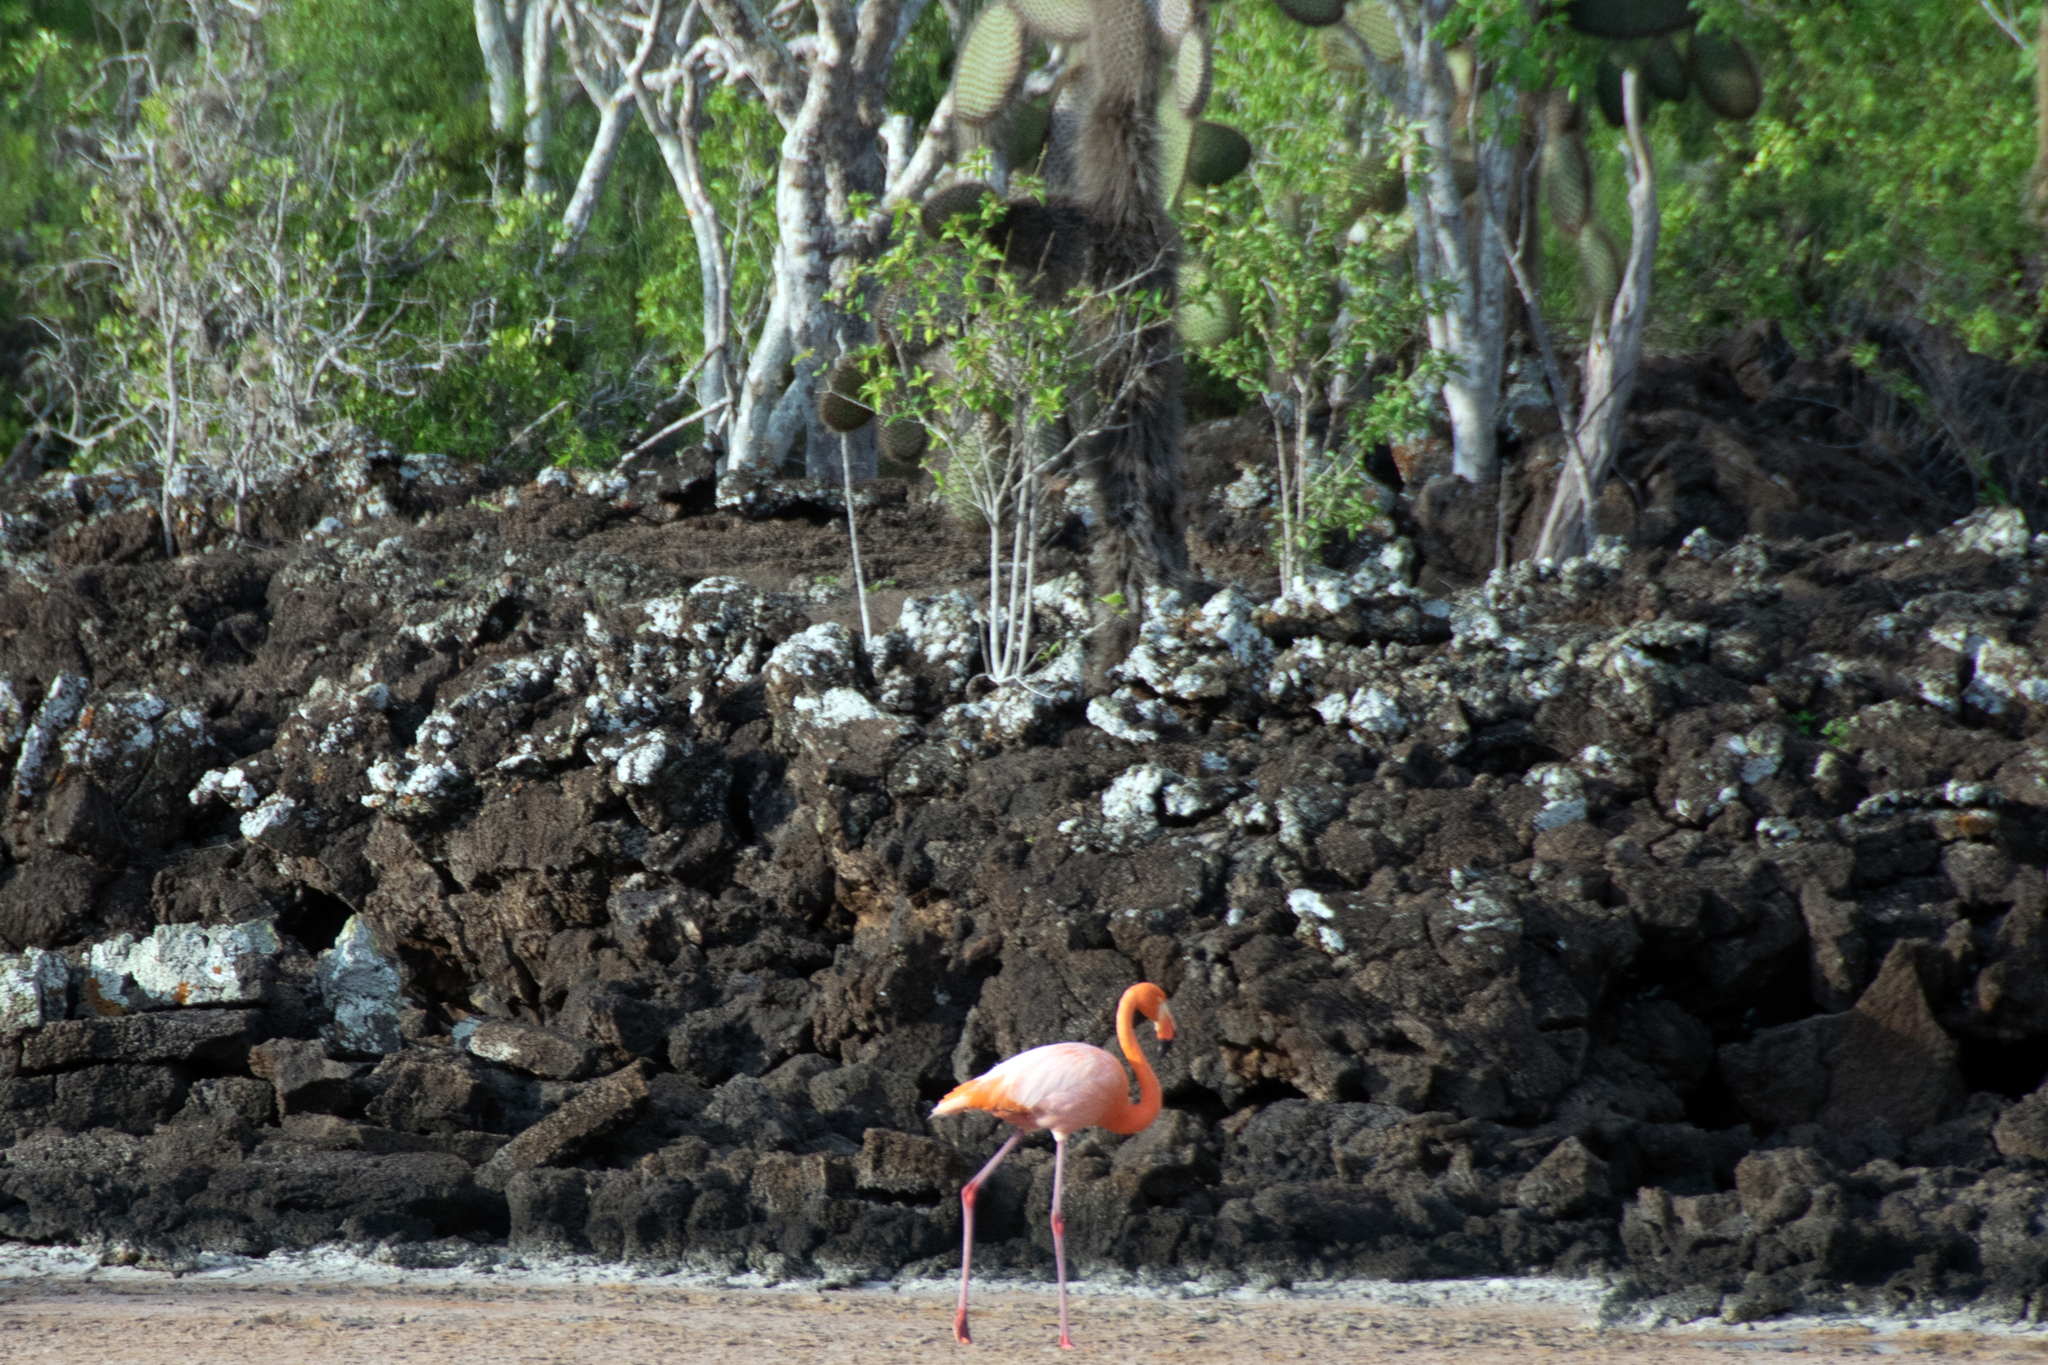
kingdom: Animalia
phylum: Chordata
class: Aves
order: Phoenicopteriformes
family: Phoenicopteridae
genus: Phoenicopterus
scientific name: Phoenicopterus ruber
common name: American flamingo
